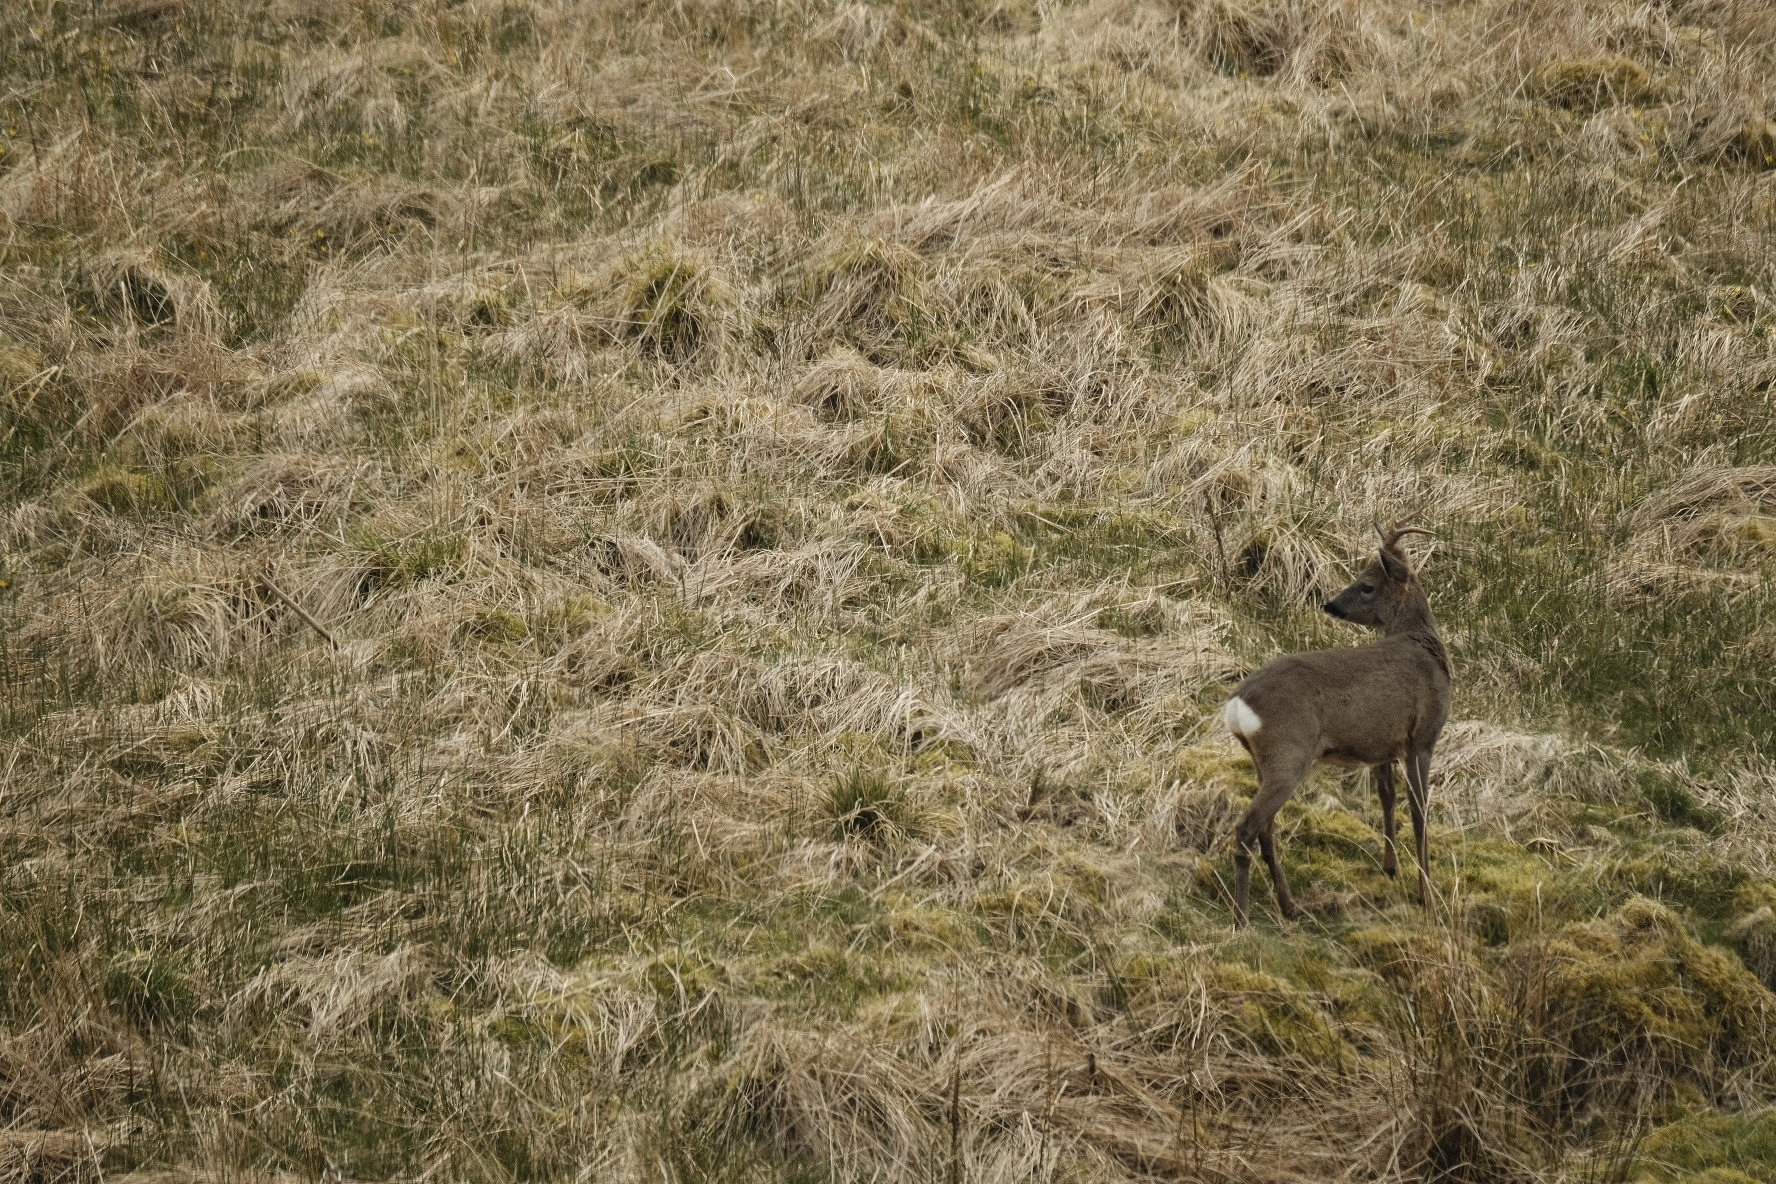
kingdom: Animalia
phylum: Chordata
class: Mammalia
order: Artiodactyla
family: Cervidae
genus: Capreolus
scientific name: Capreolus capreolus
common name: Western roe deer
